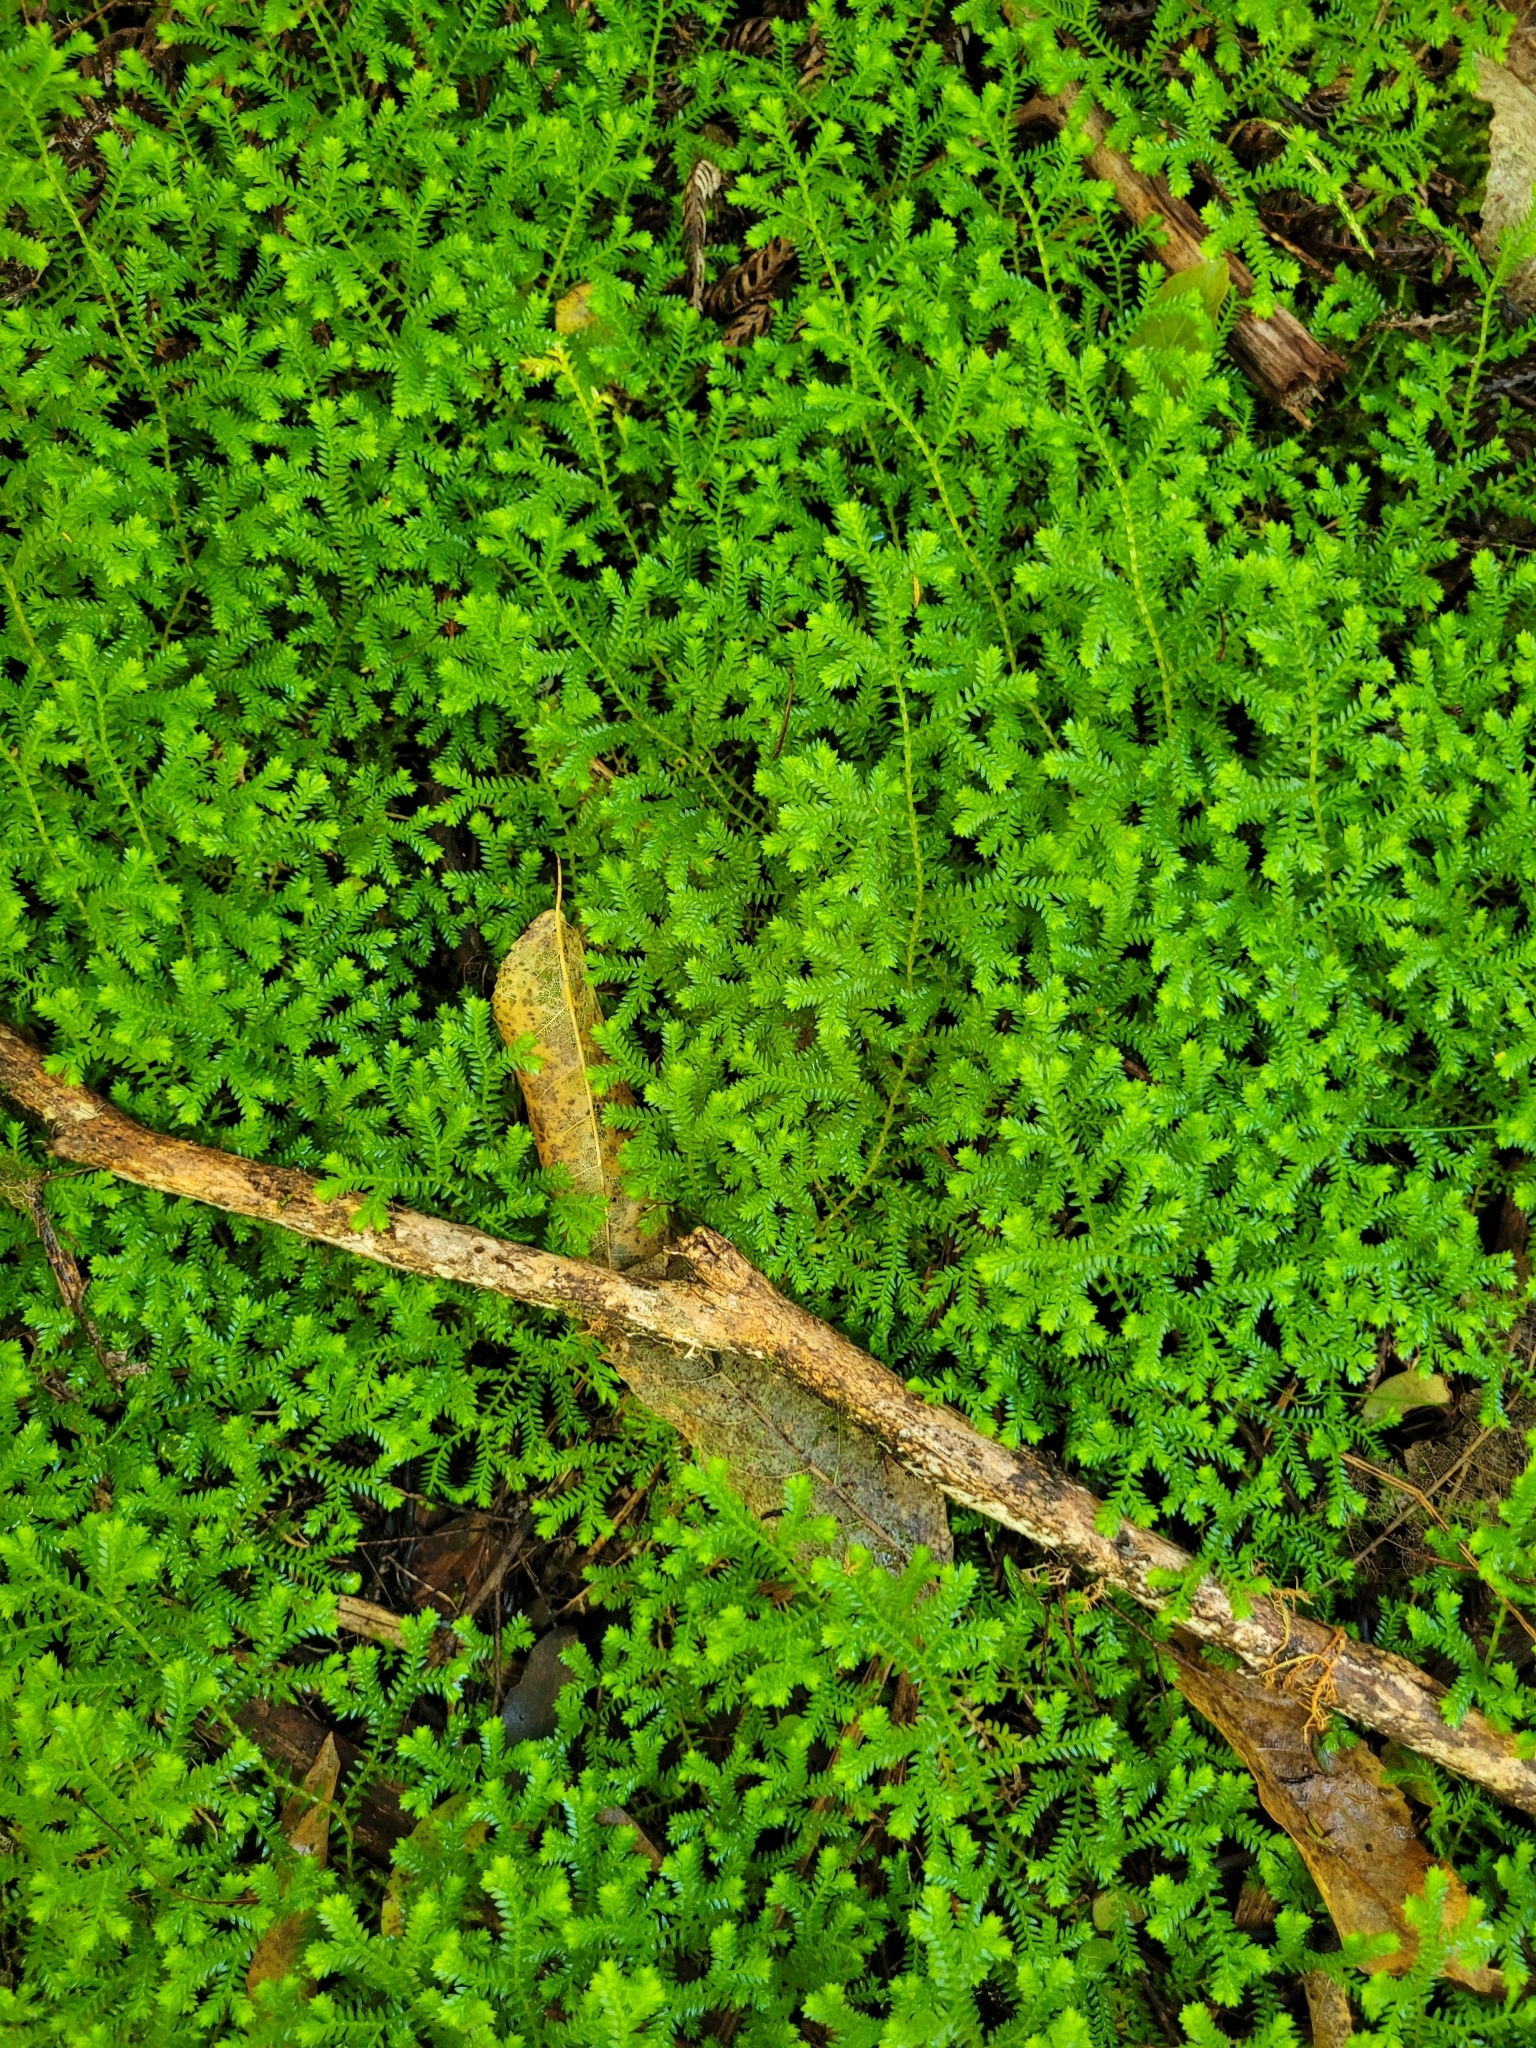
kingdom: Plantae
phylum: Tracheophyta
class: Lycopodiopsida
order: Selaginellales
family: Selaginellaceae
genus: Selaginella
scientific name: Selaginella kraussiana
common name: Krauss' spikemoss
